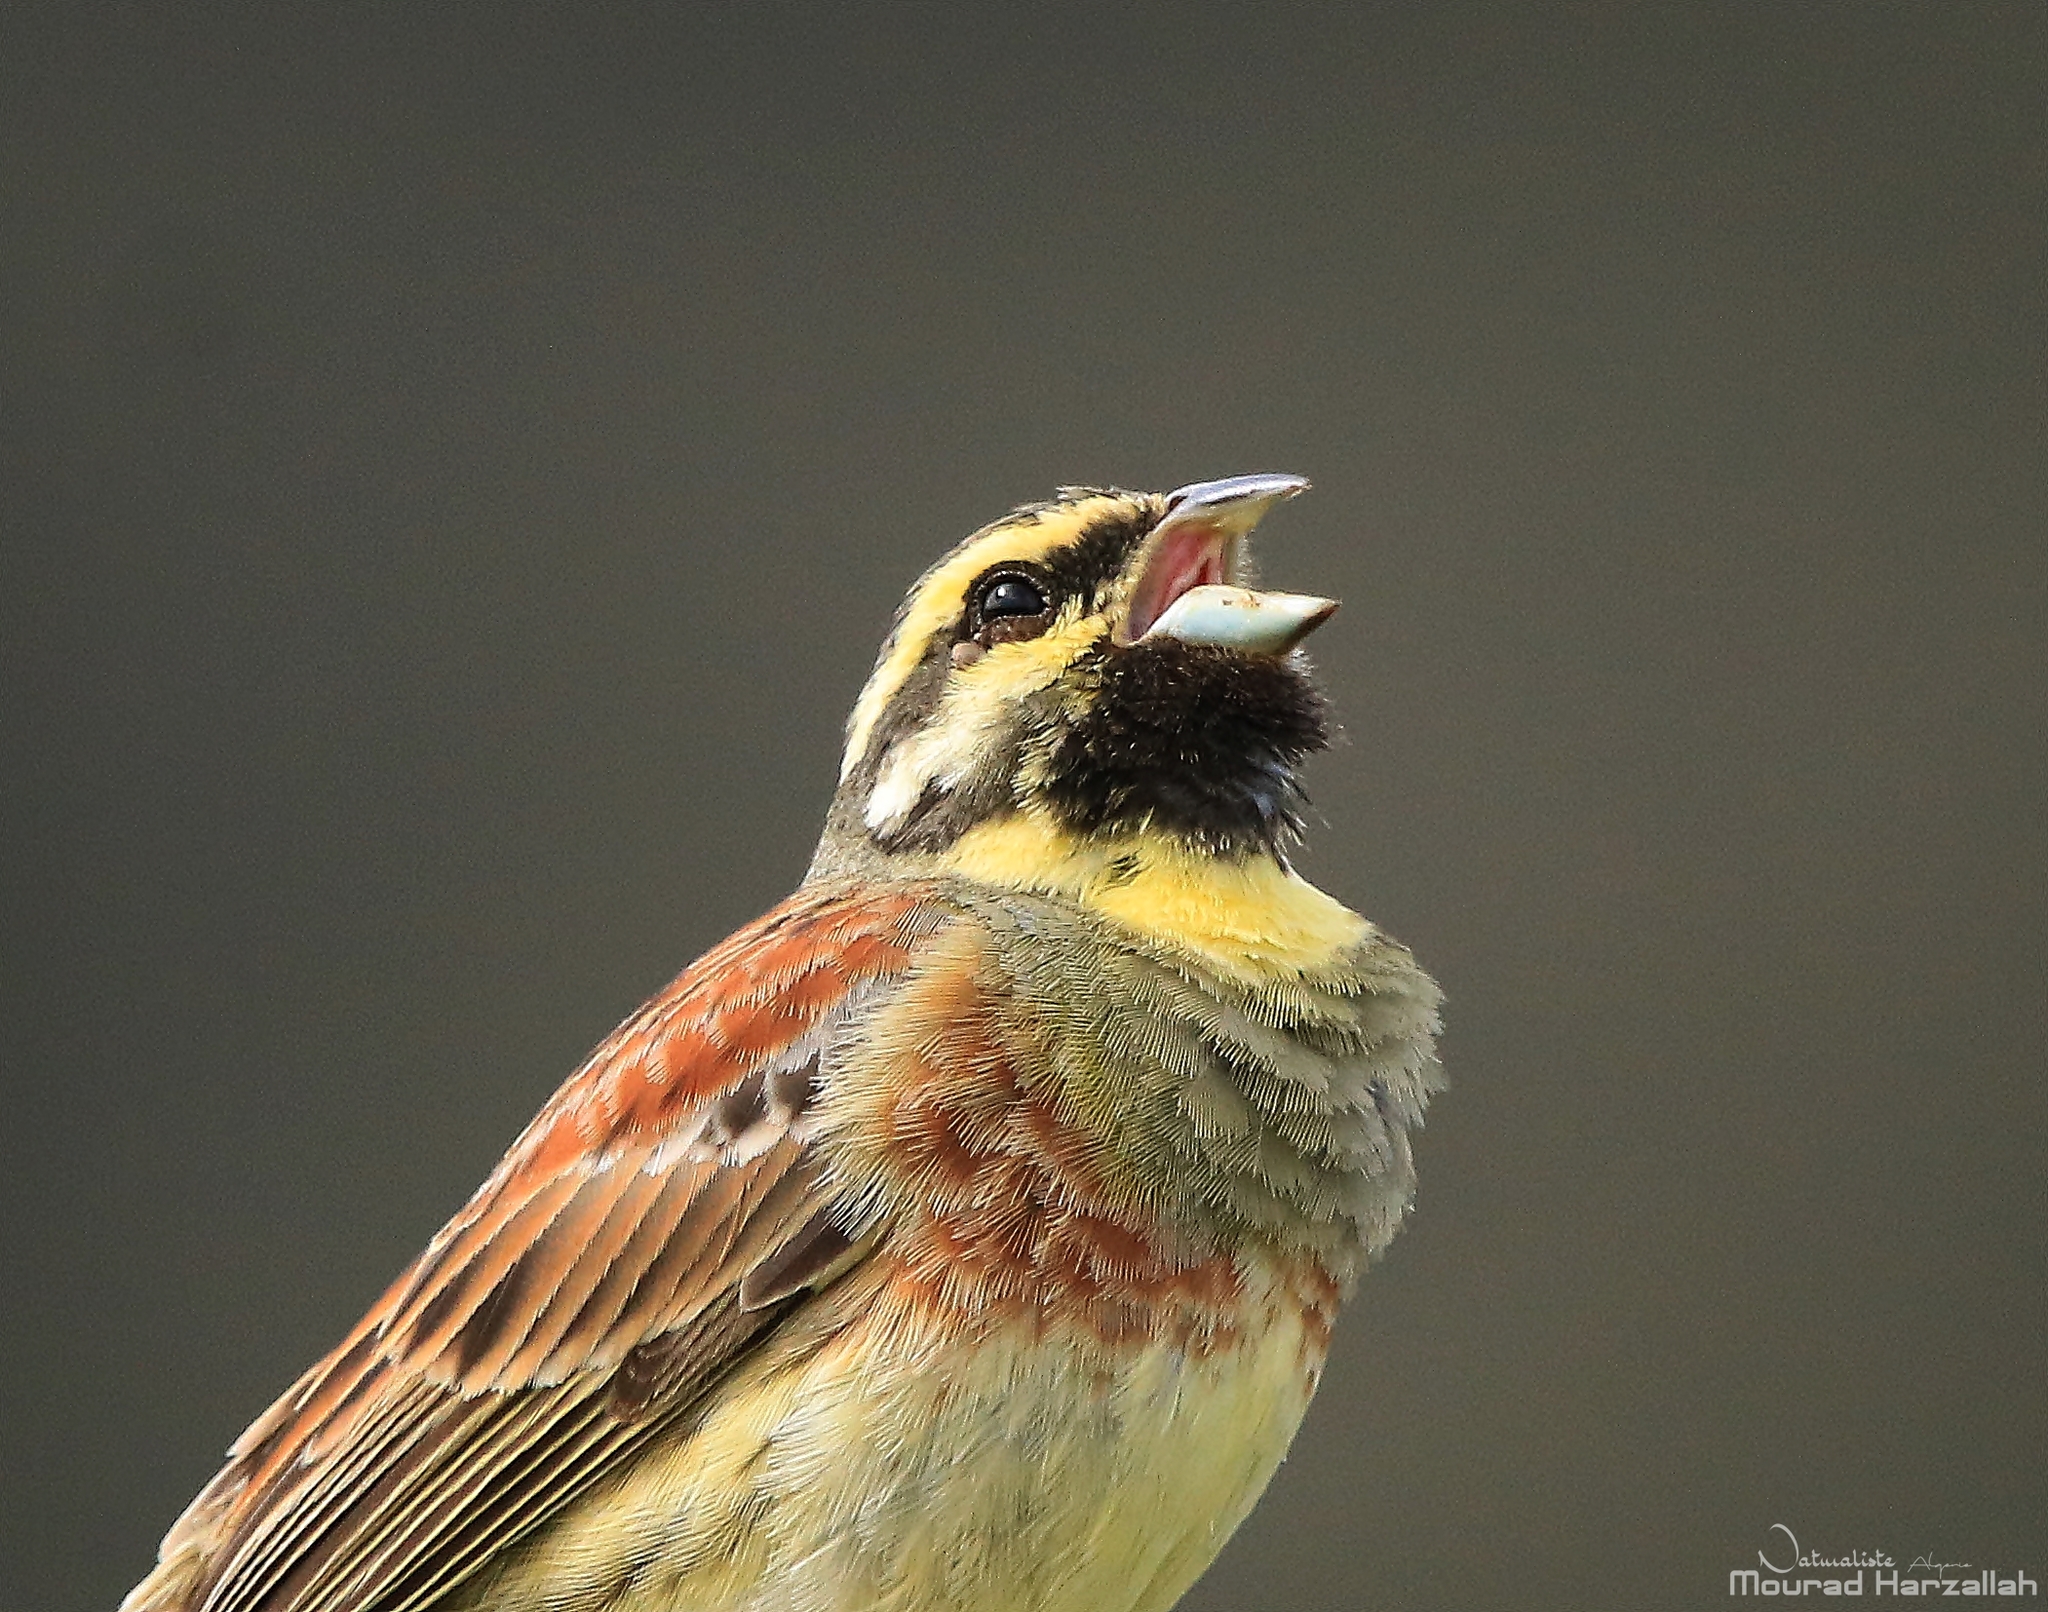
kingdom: Animalia
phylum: Chordata
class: Aves
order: Passeriformes
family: Emberizidae
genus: Emberiza
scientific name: Emberiza cirlus
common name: Cirl bunting
